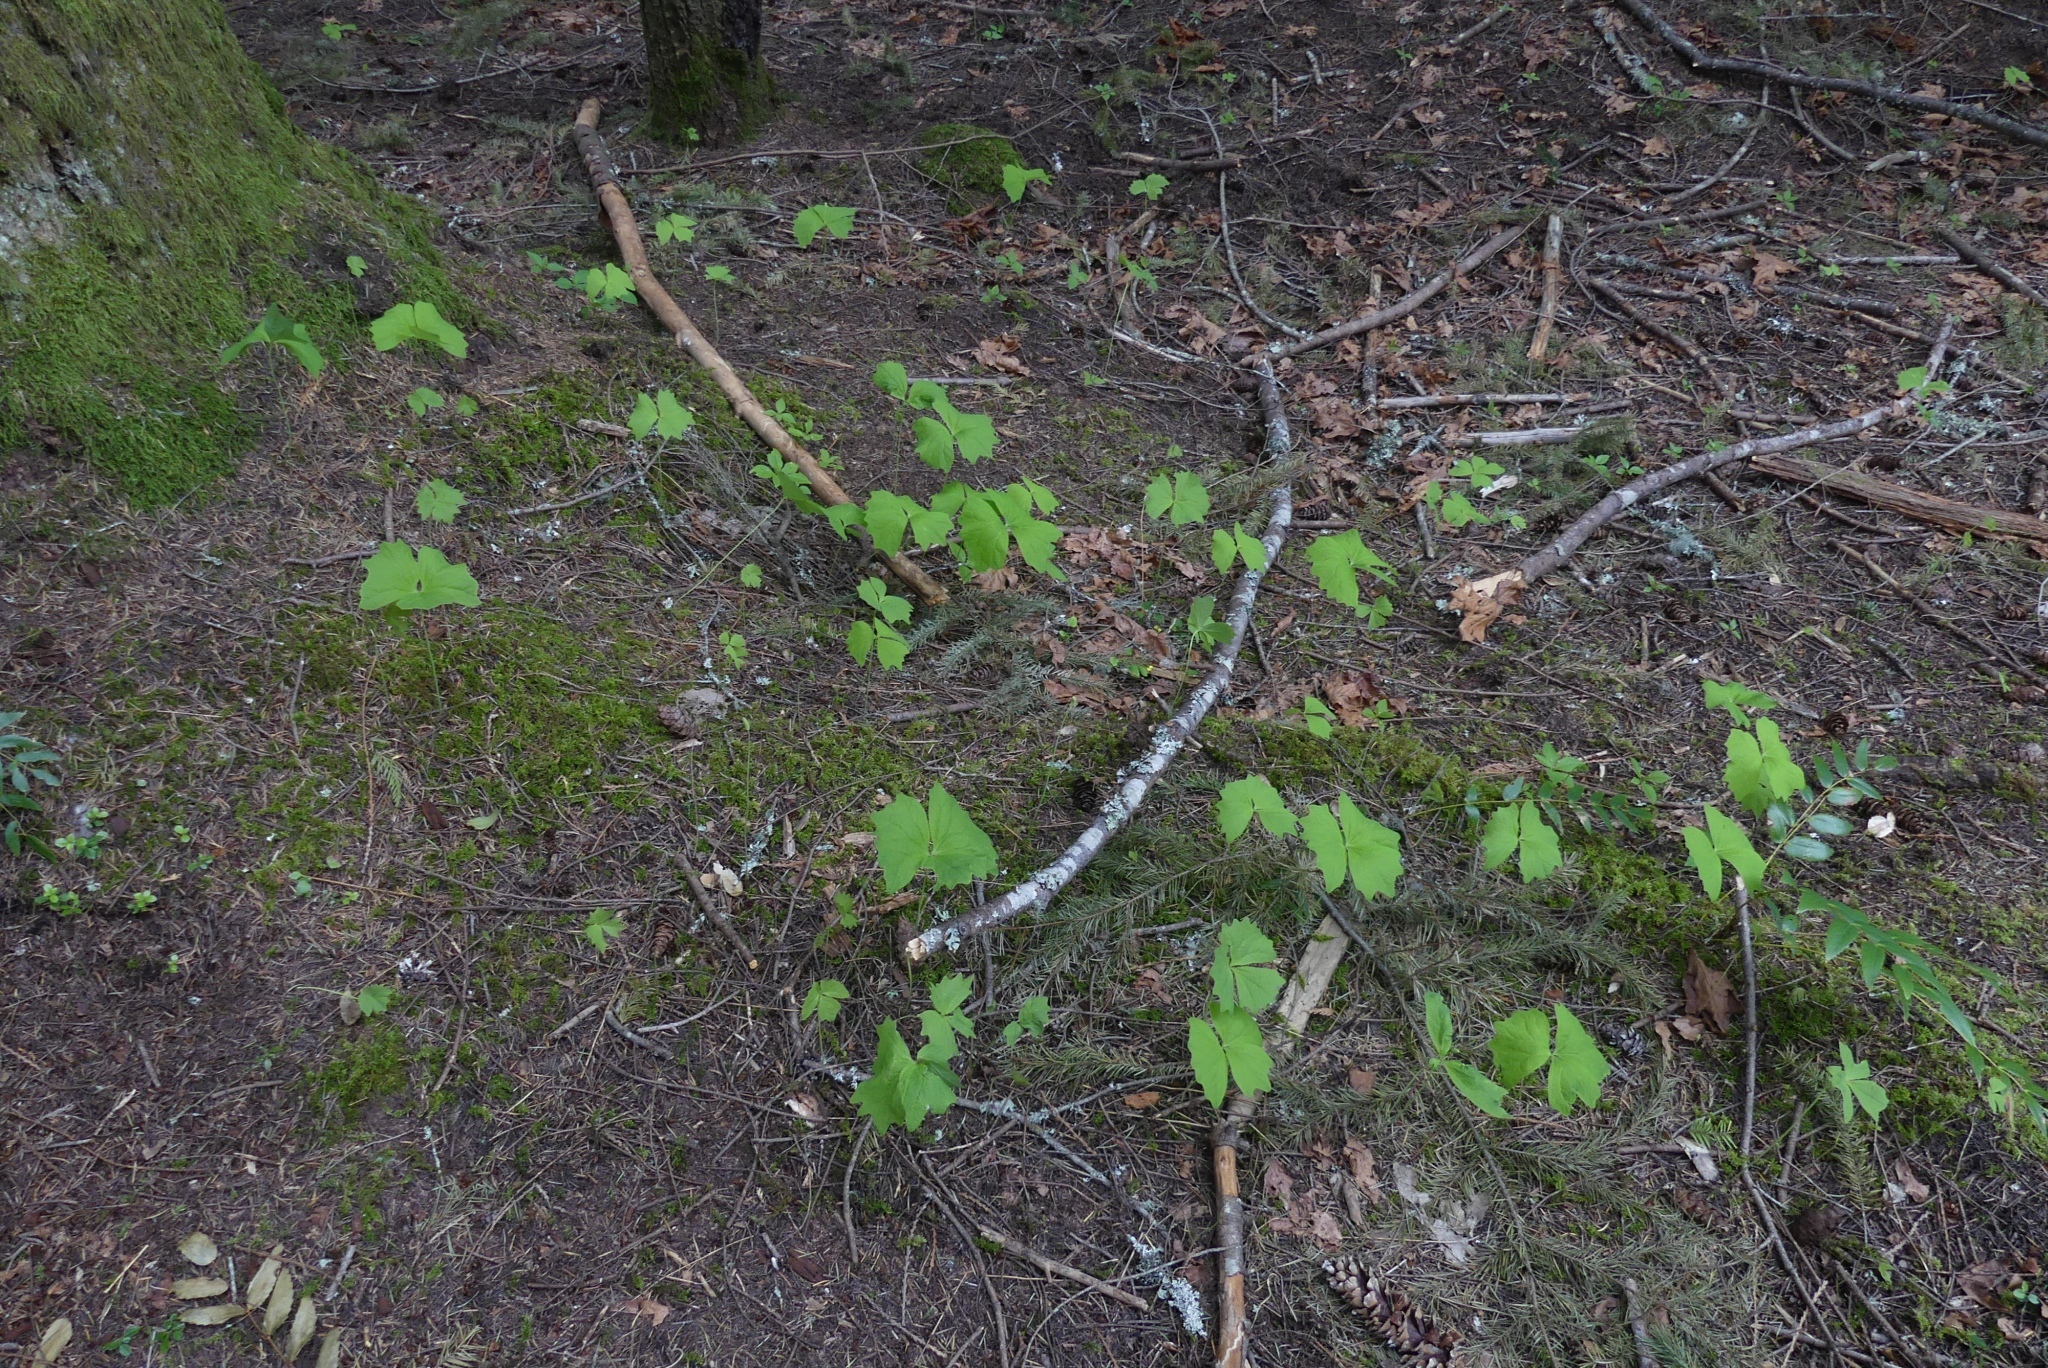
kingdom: Plantae
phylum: Tracheophyta
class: Magnoliopsida
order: Ranunculales
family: Berberidaceae
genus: Achlys
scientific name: Achlys triphylla
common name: Vanilla-leaf
